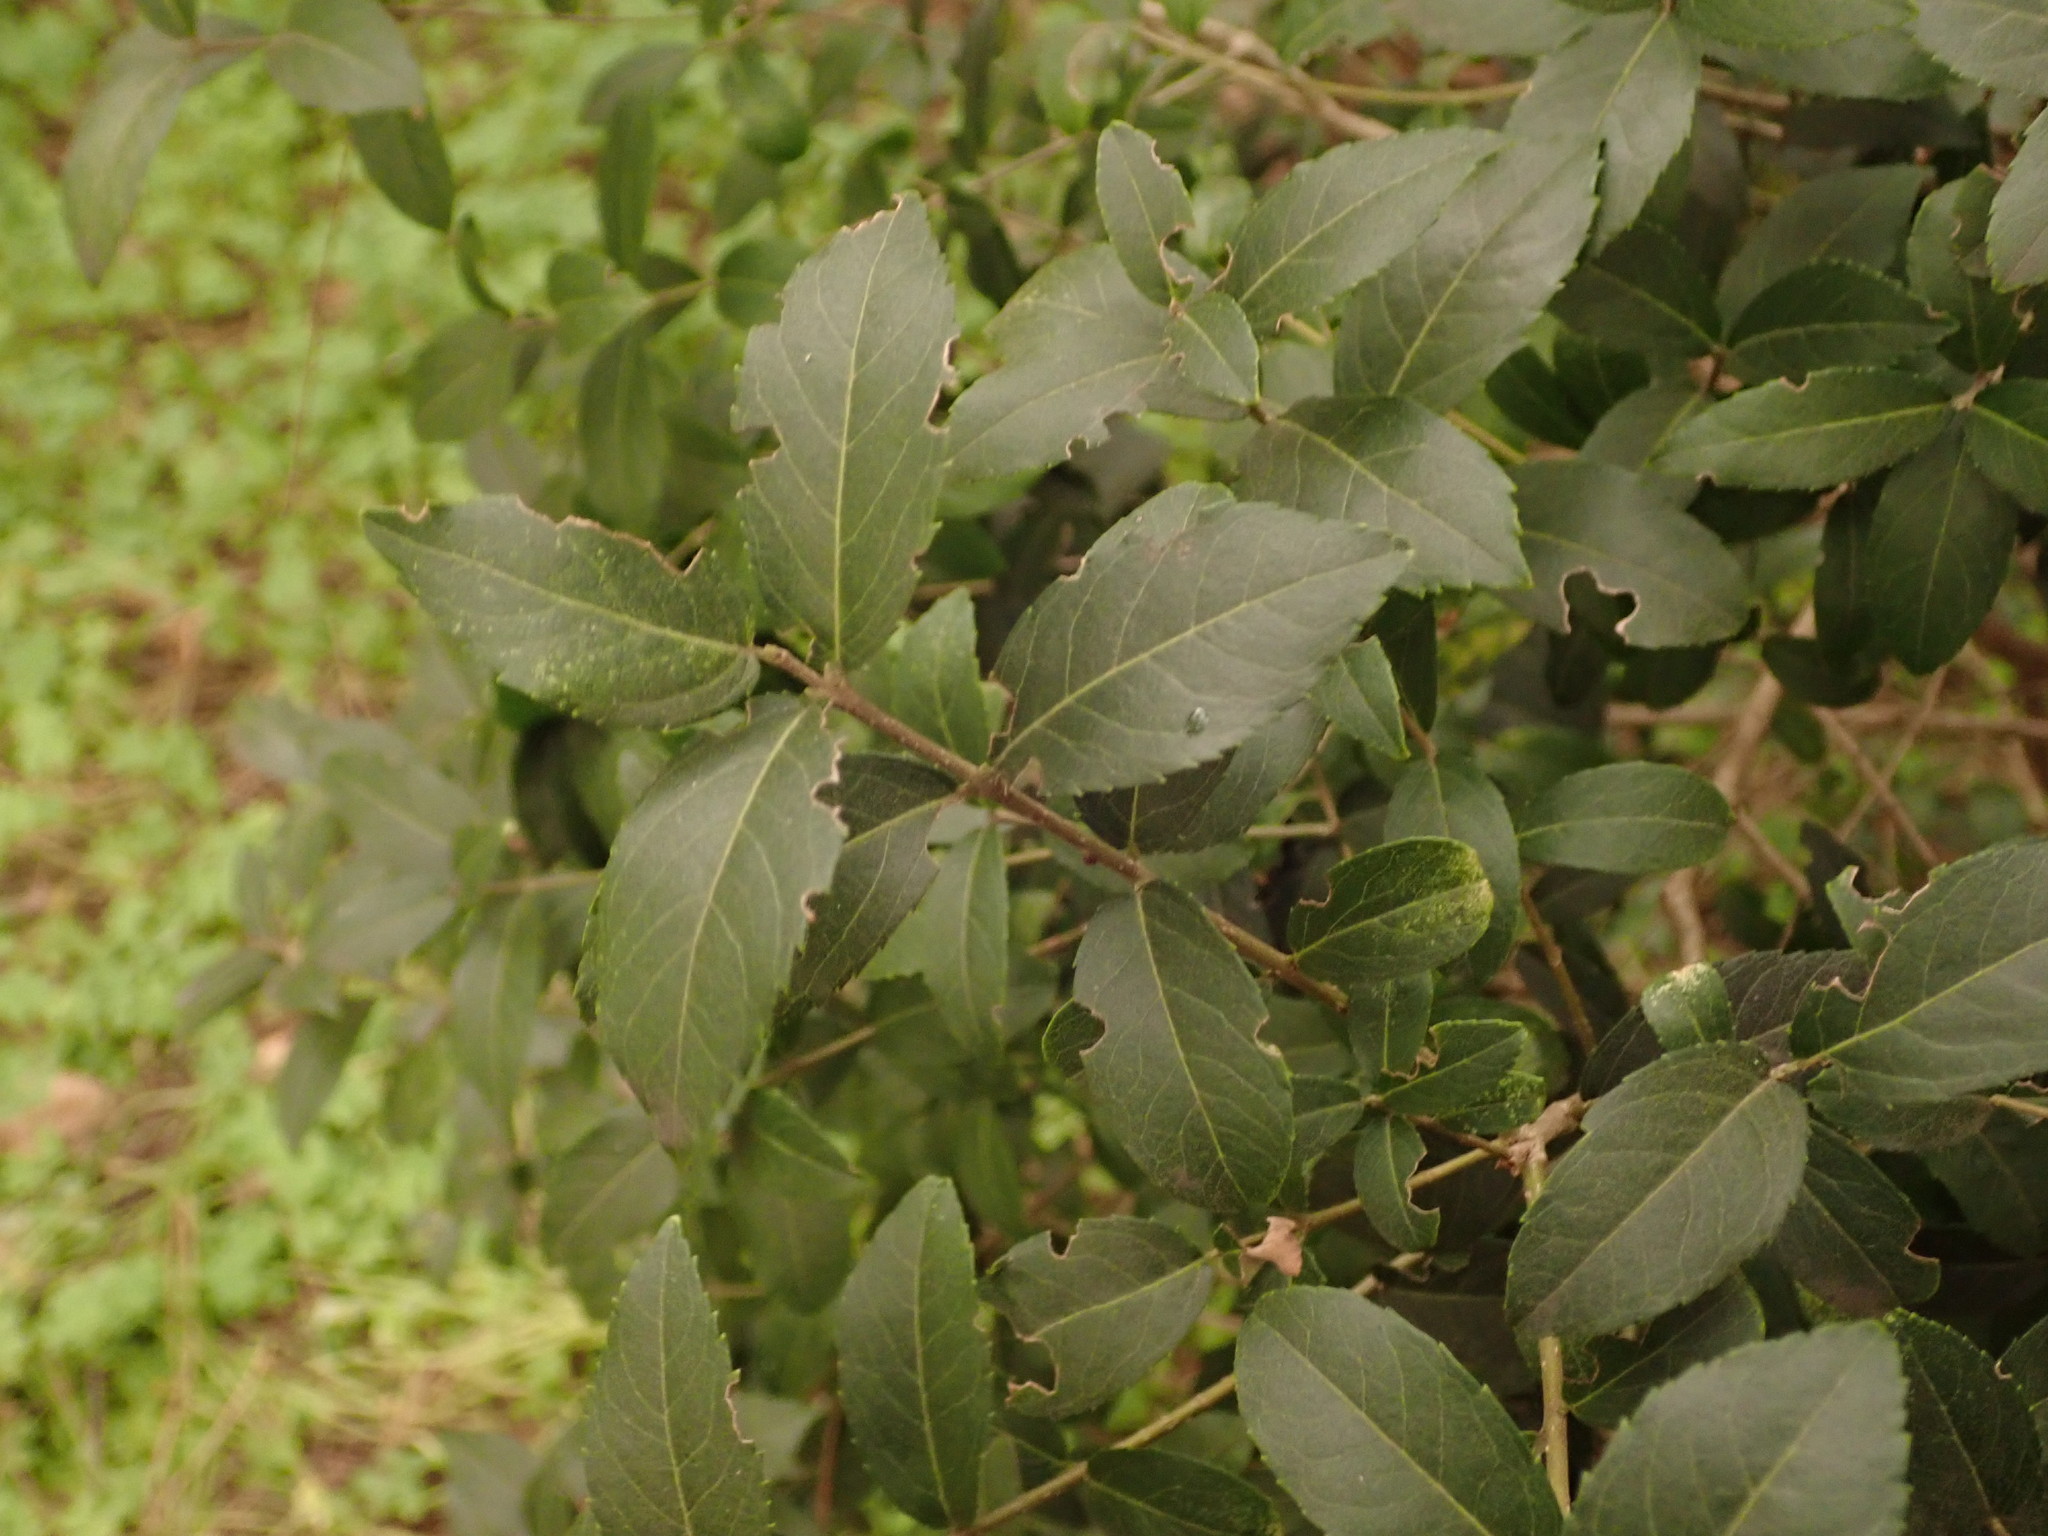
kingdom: Plantae
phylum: Tracheophyta
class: Magnoliopsida
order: Lamiales
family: Oleaceae
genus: Phillyrea
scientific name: Phillyrea latifolia
